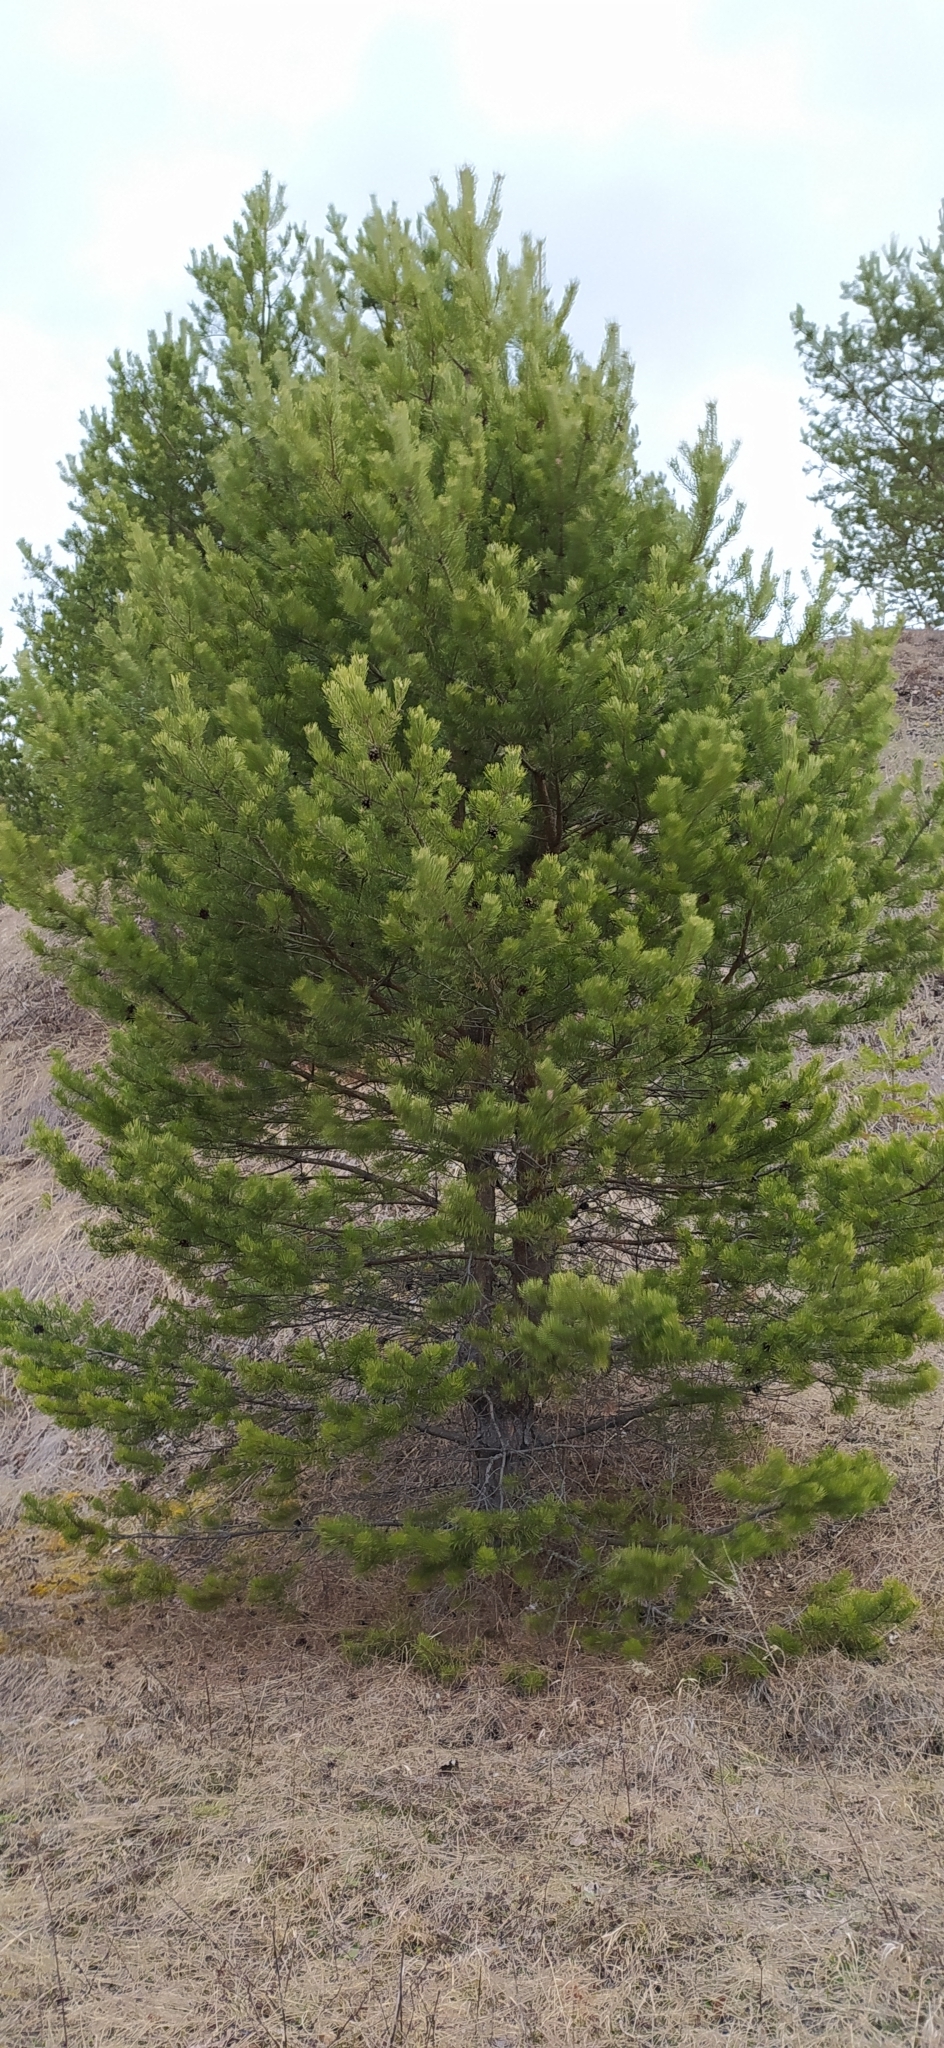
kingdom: Plantae
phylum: Tracheophyta
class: Pinopsida
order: Pinales
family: Pinaceae
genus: Pinus
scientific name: Pinus sylvestris
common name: Scots pine
